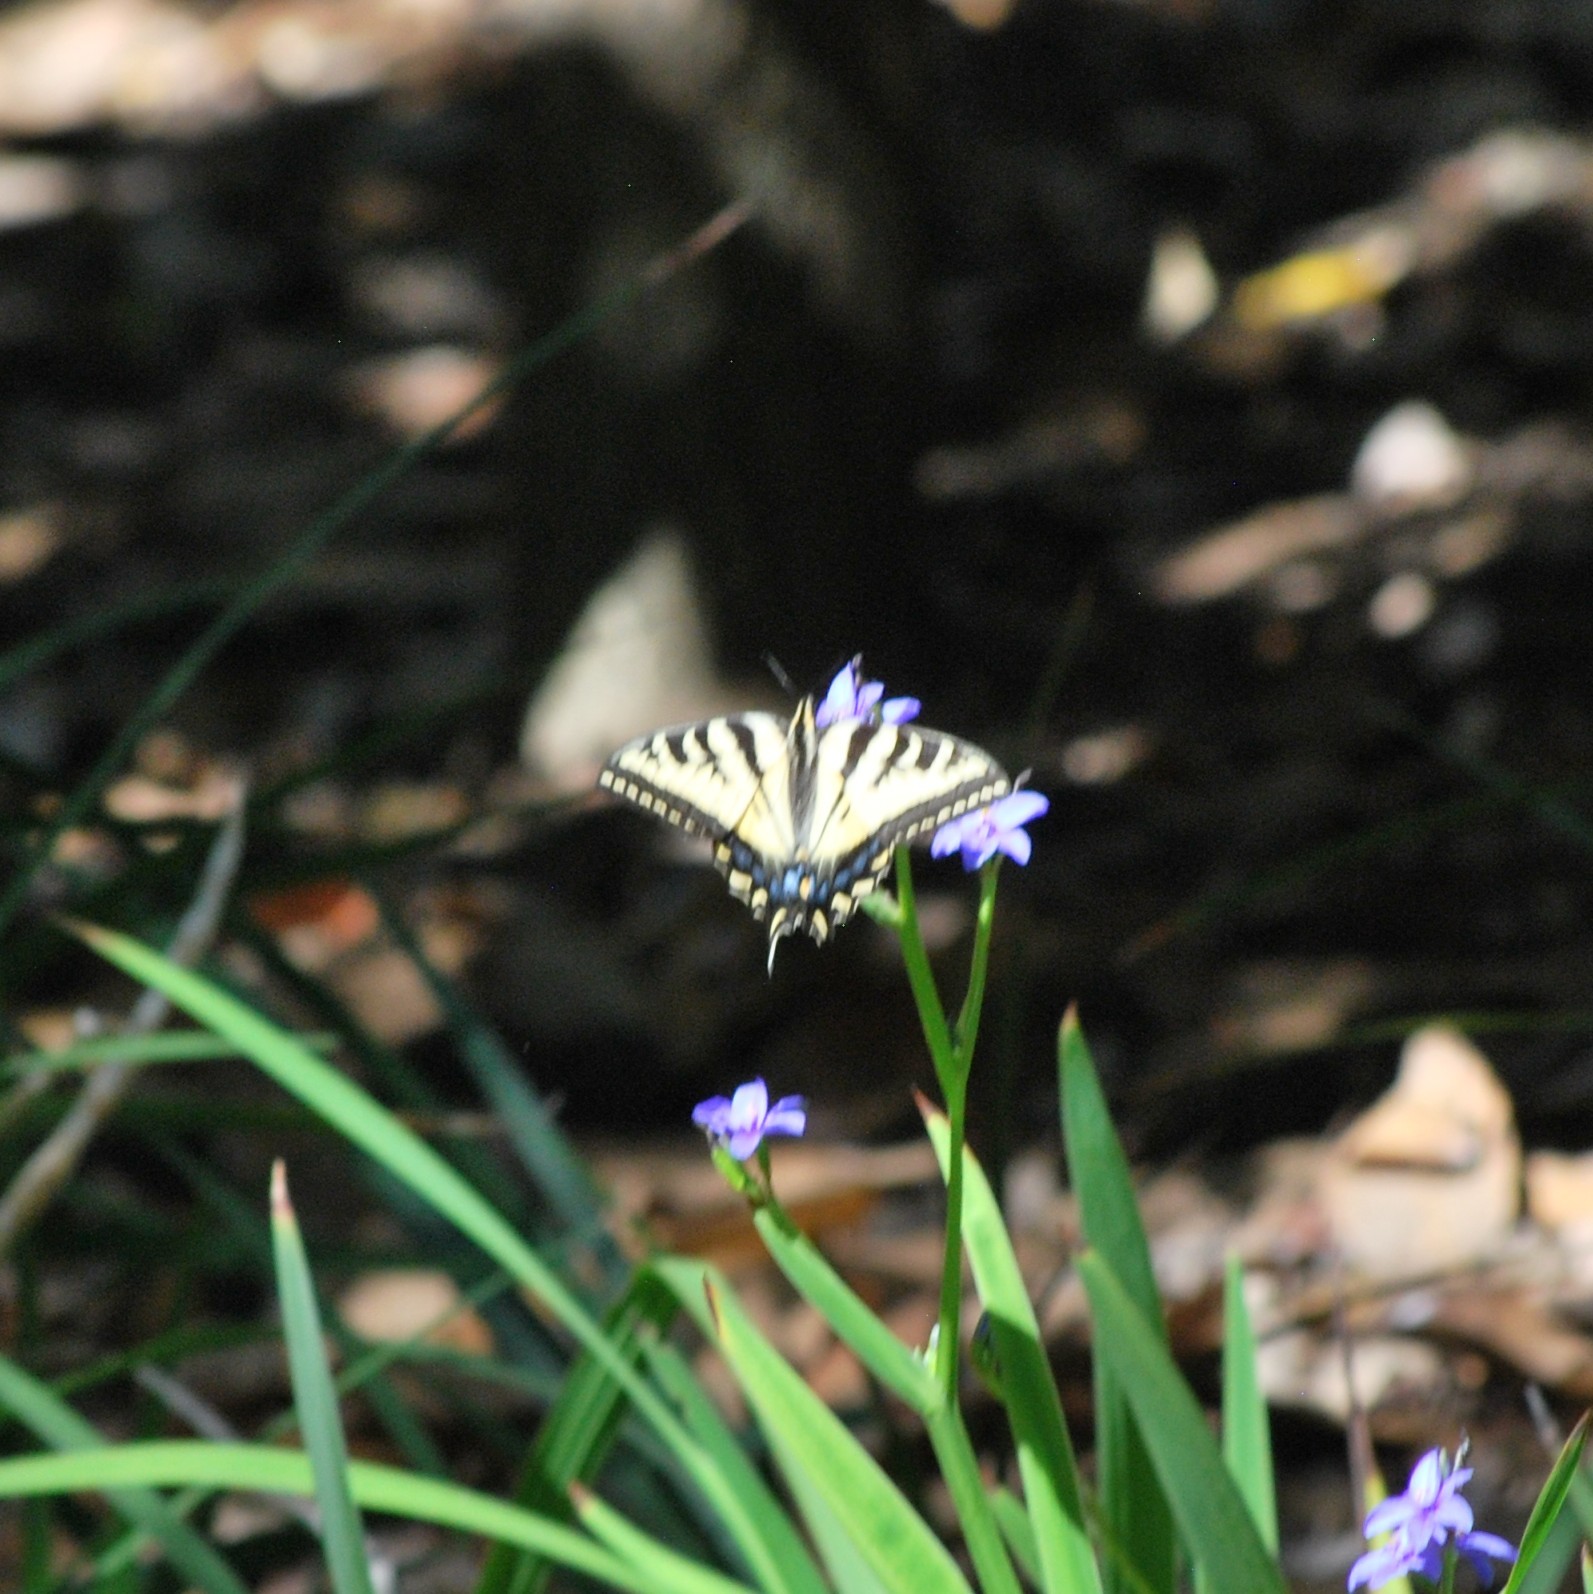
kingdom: Animalia
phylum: Arthropoda
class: Insecta
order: Lepidoptera
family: Papilionidae
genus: Papilio
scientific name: Papilio rutulus
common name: Western tiger swallowtail
